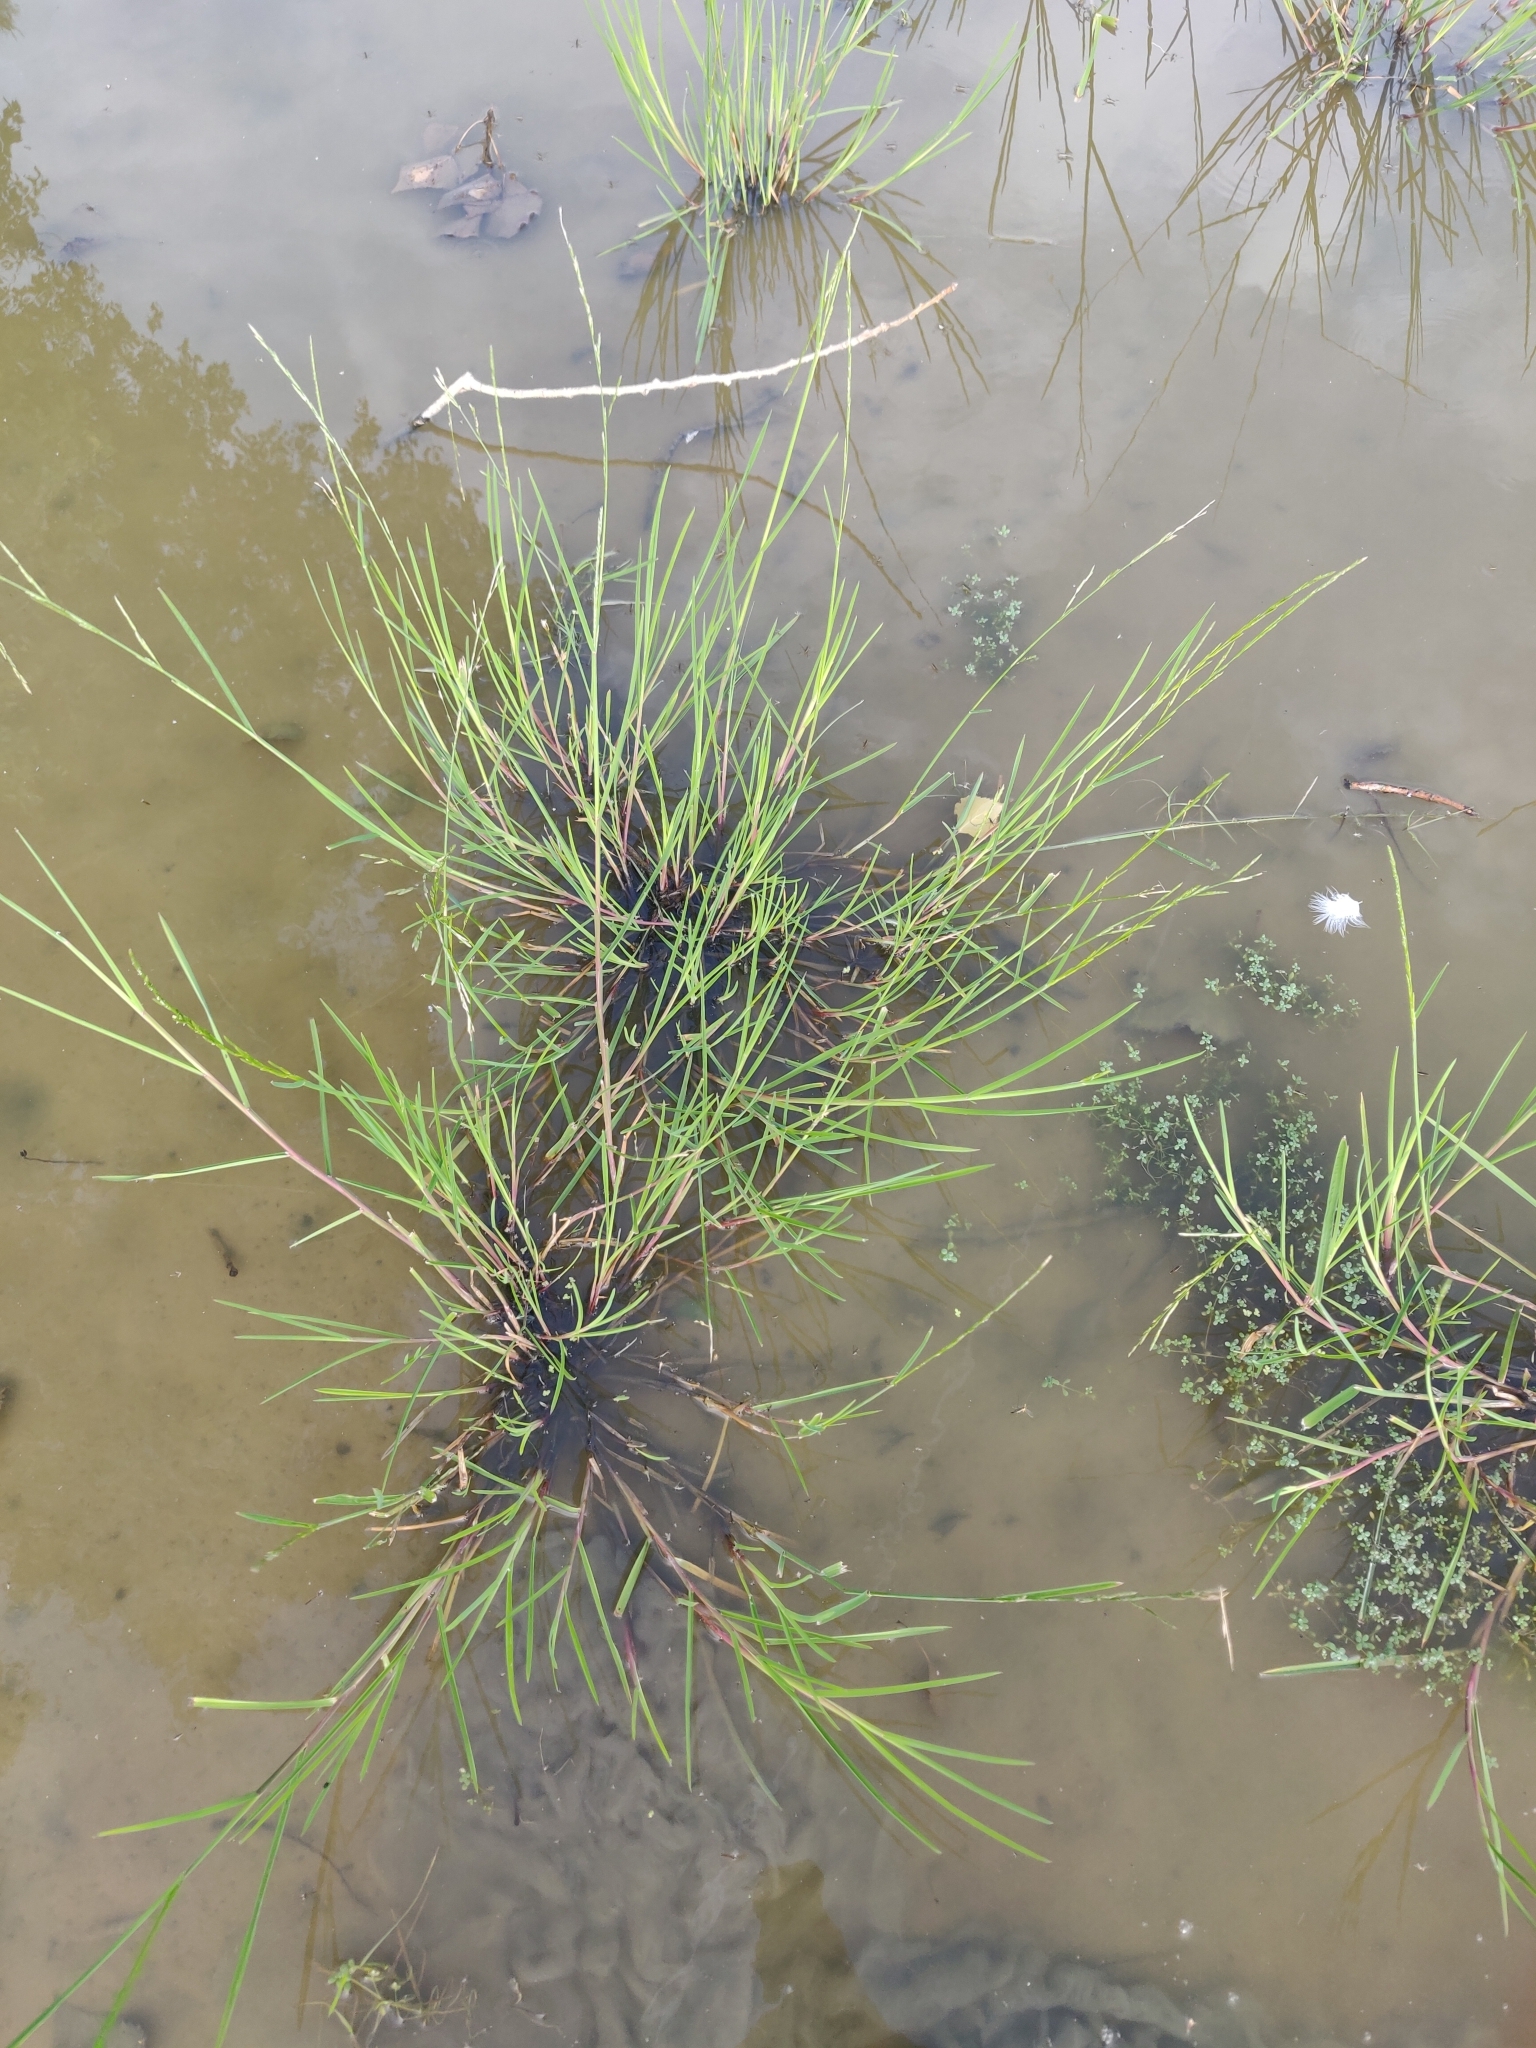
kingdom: Plantae
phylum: Tracheophyta
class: Liliopsida
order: Poales
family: Poaceae
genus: Glyceria
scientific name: Glyceria fluitans
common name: Floating sweet-grass
